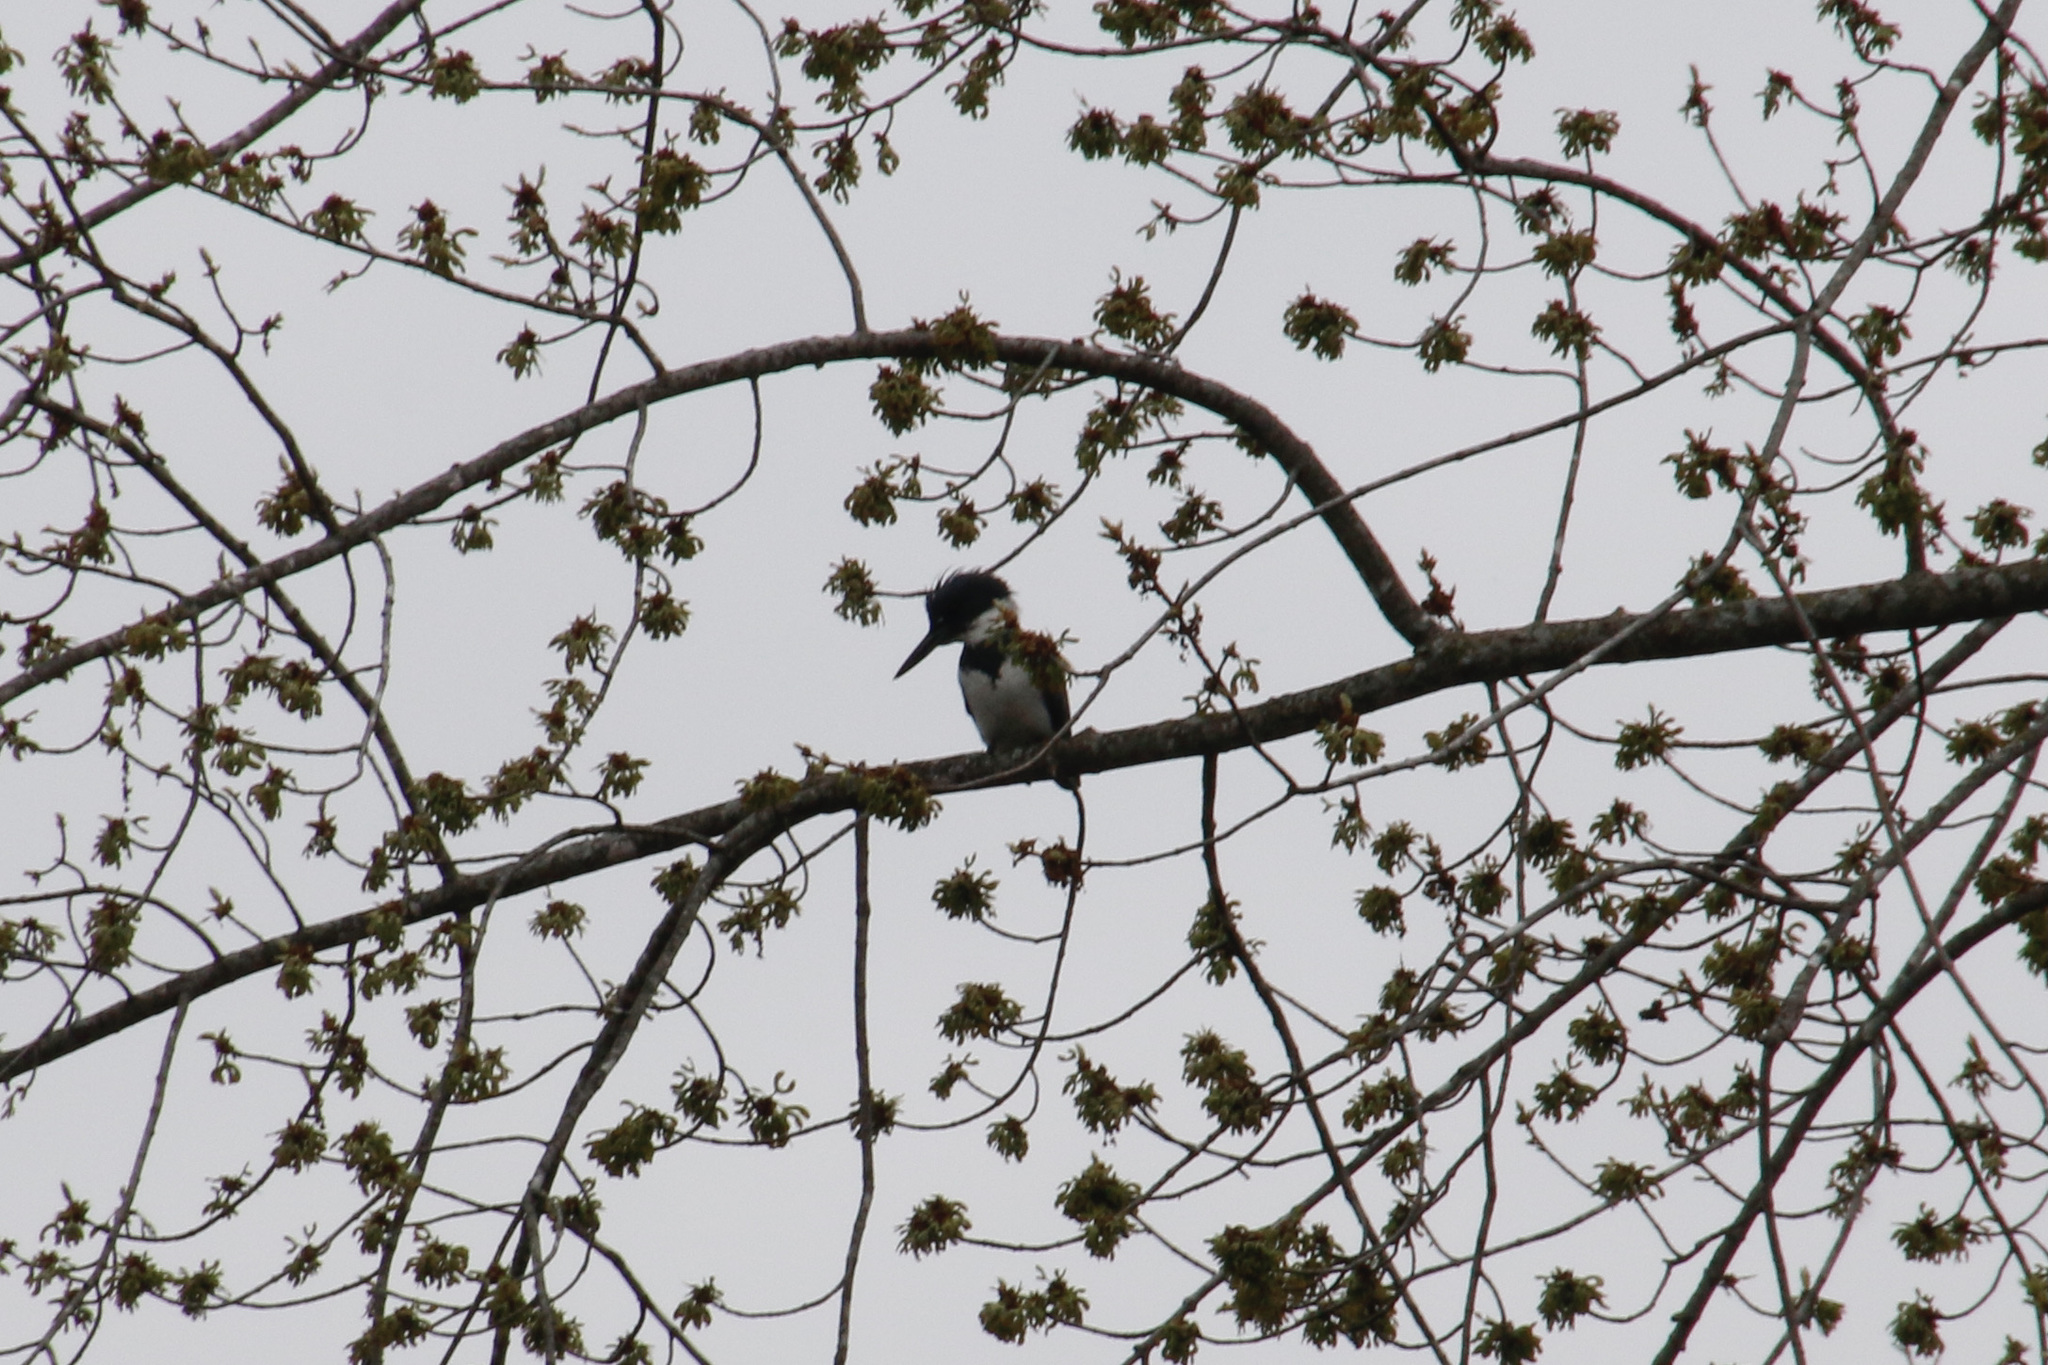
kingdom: Animalia
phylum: Chordata
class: Aves
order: Coraciiformes
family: Alcedinidae
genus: Megaceryle
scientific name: Megaceryle alcyon
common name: Belted kingfisher
